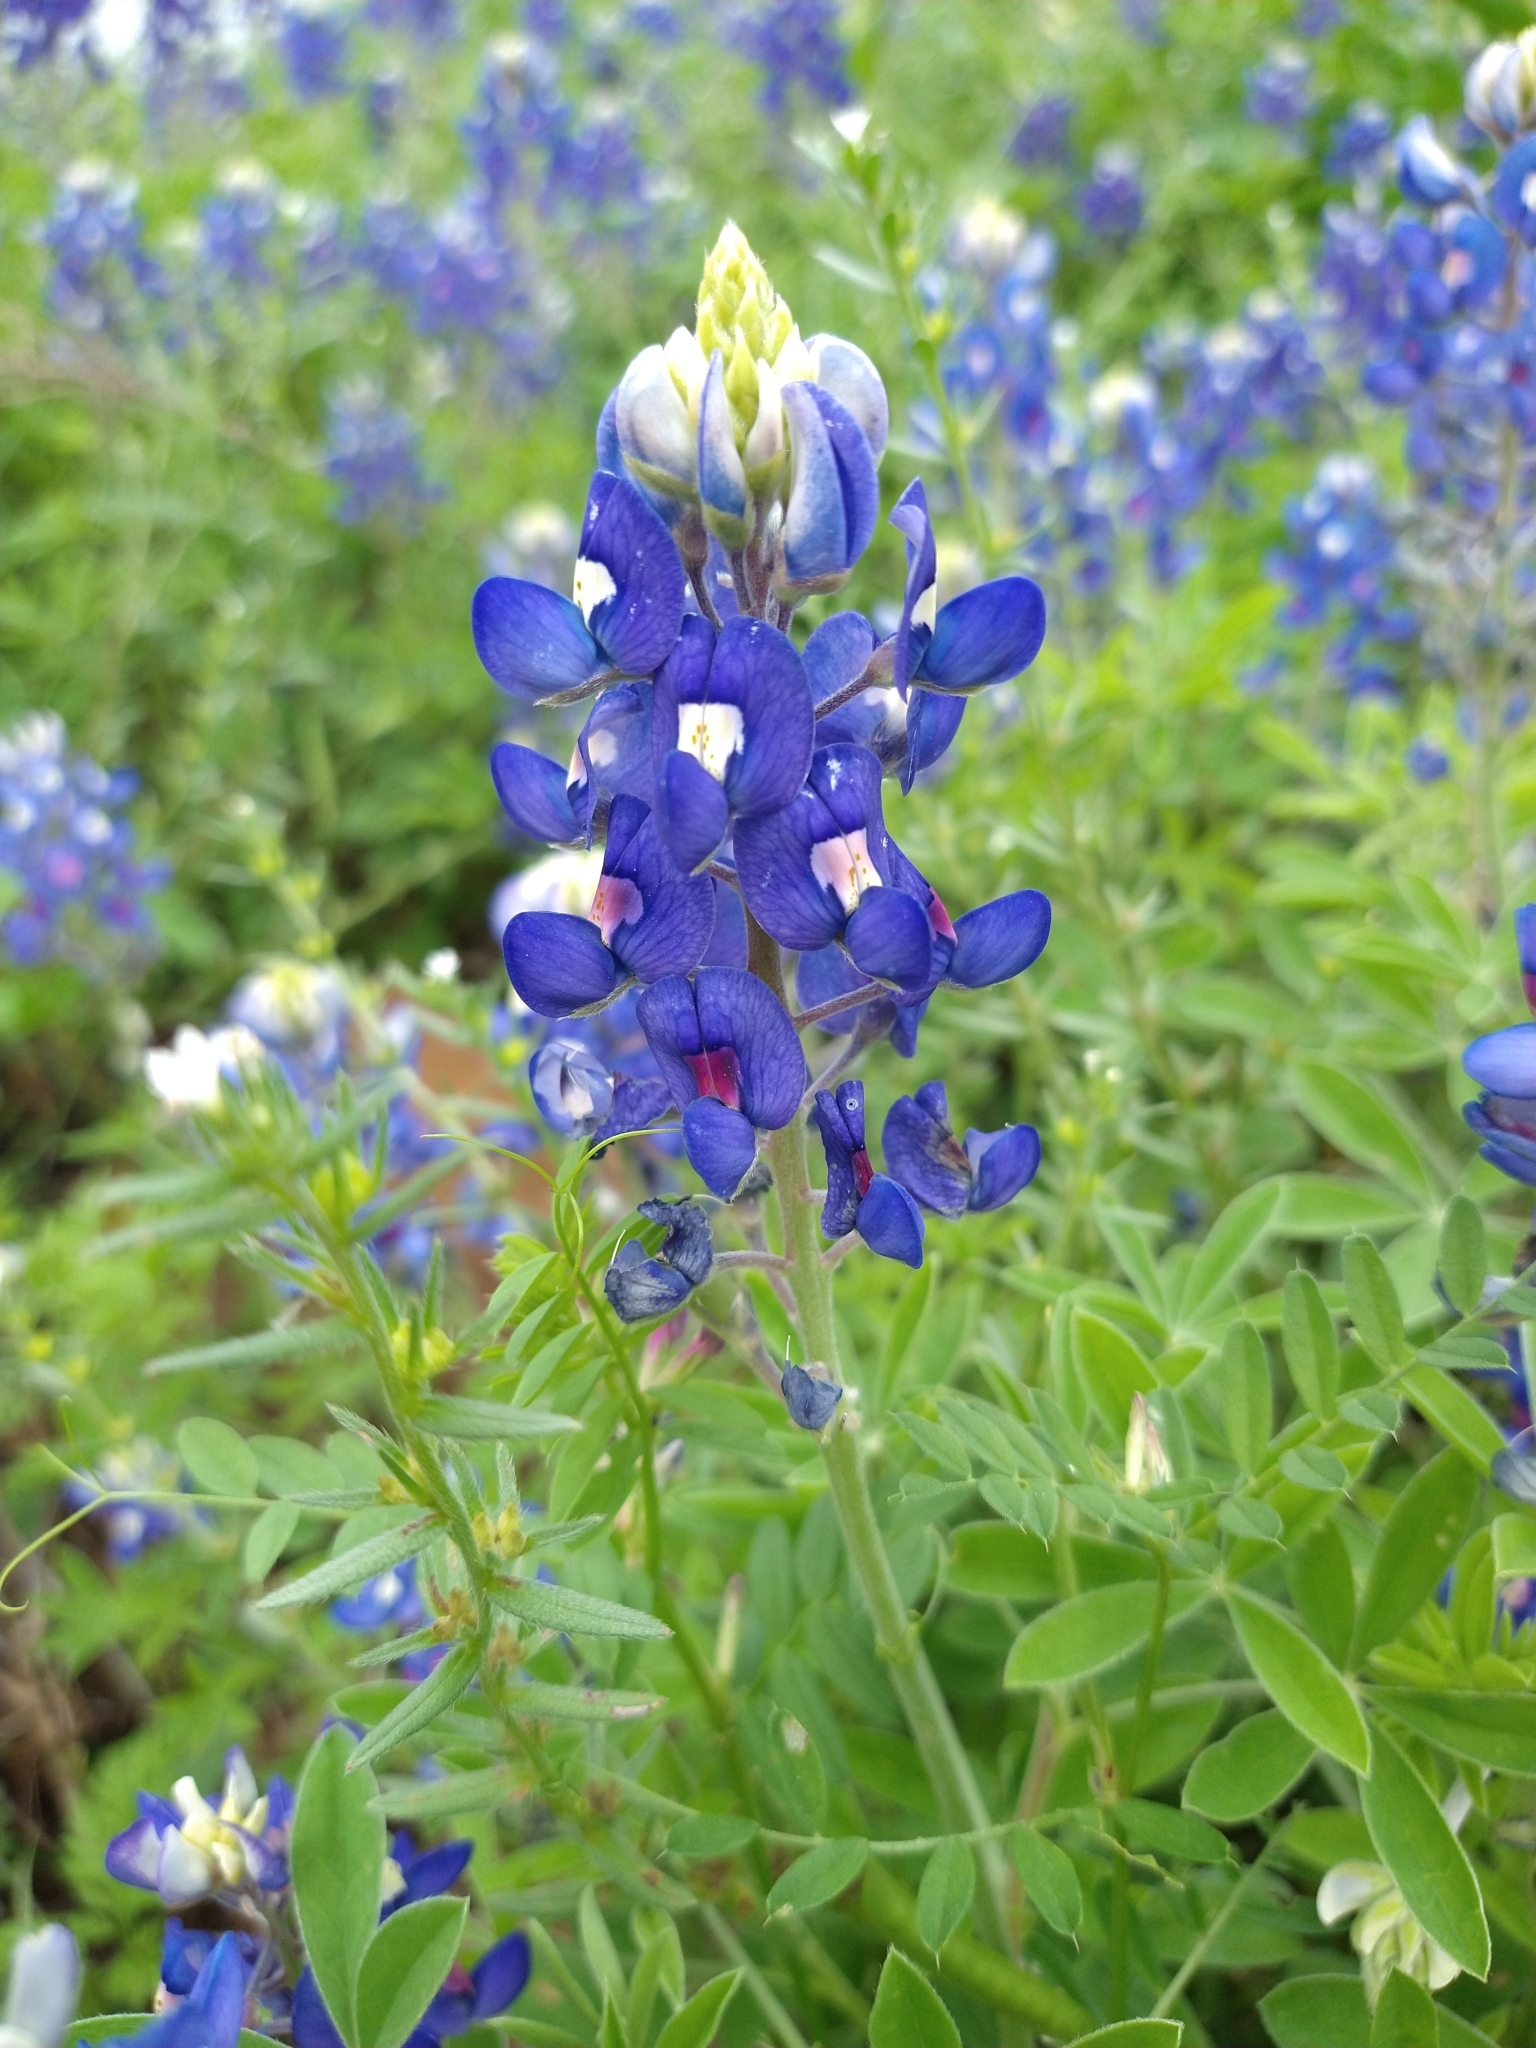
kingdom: Plantae
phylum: Tracheophyta
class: Magnoliopsida
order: Fabales
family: Fabaceae
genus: Lupinus
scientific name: Lupinus texensis
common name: Texas bluebonnet
